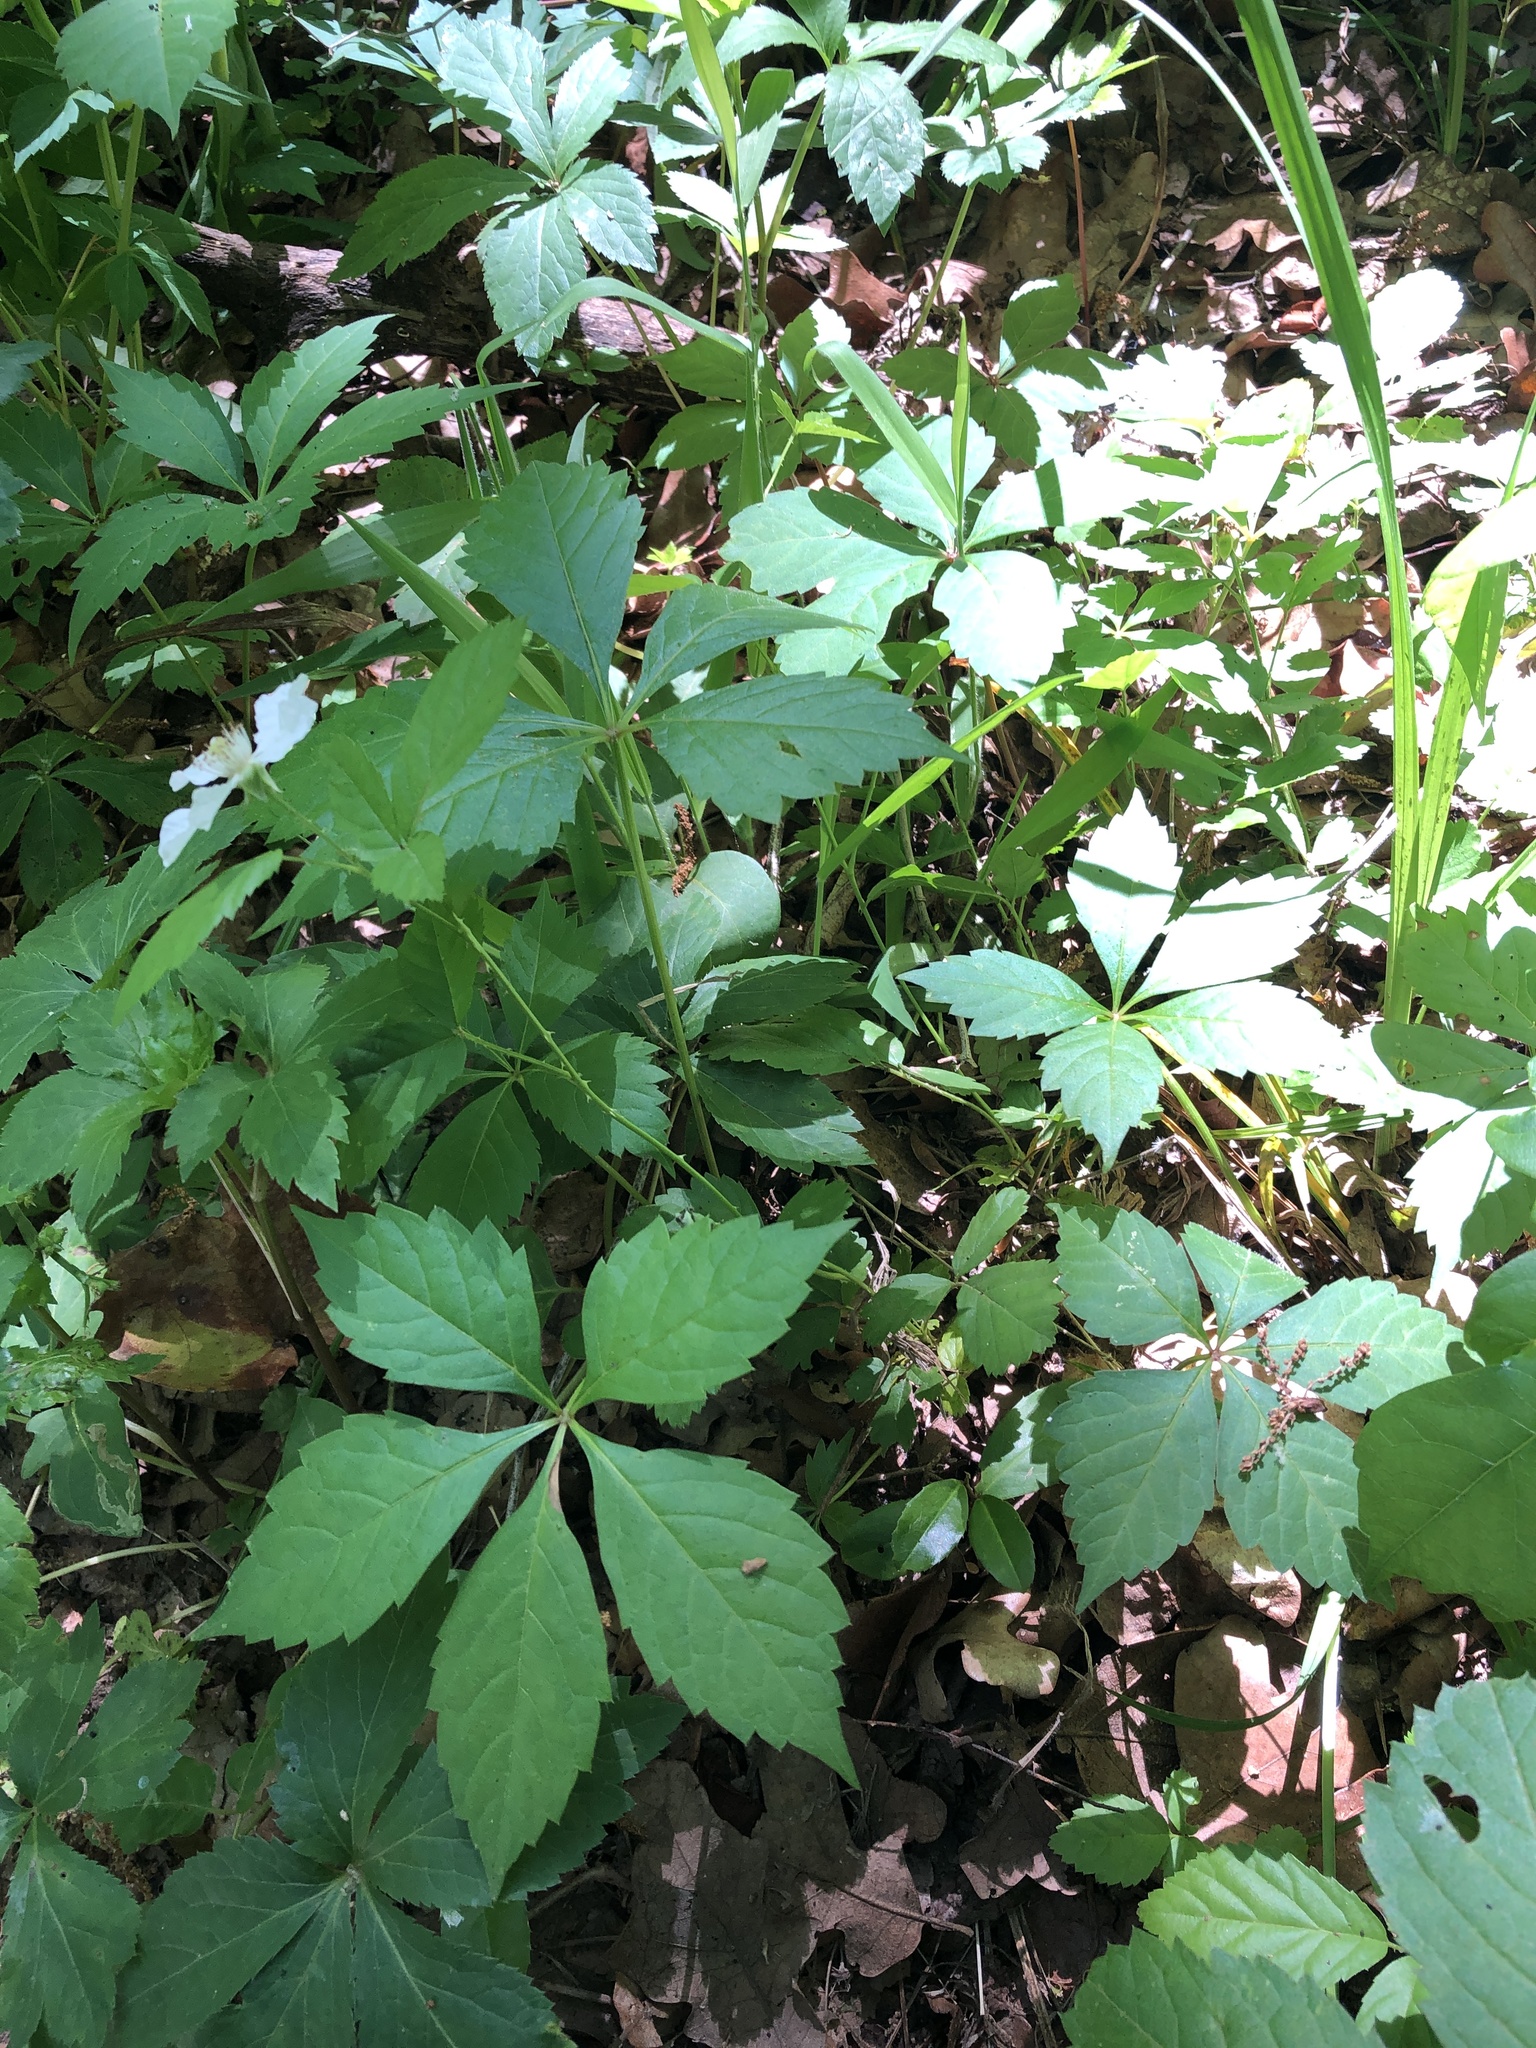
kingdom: Plantae
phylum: Tracheophyta
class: Magnoliopsida
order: Rosales
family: Rosaceae
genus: Rubus
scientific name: Rubus trivialis
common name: Southern dewberry
